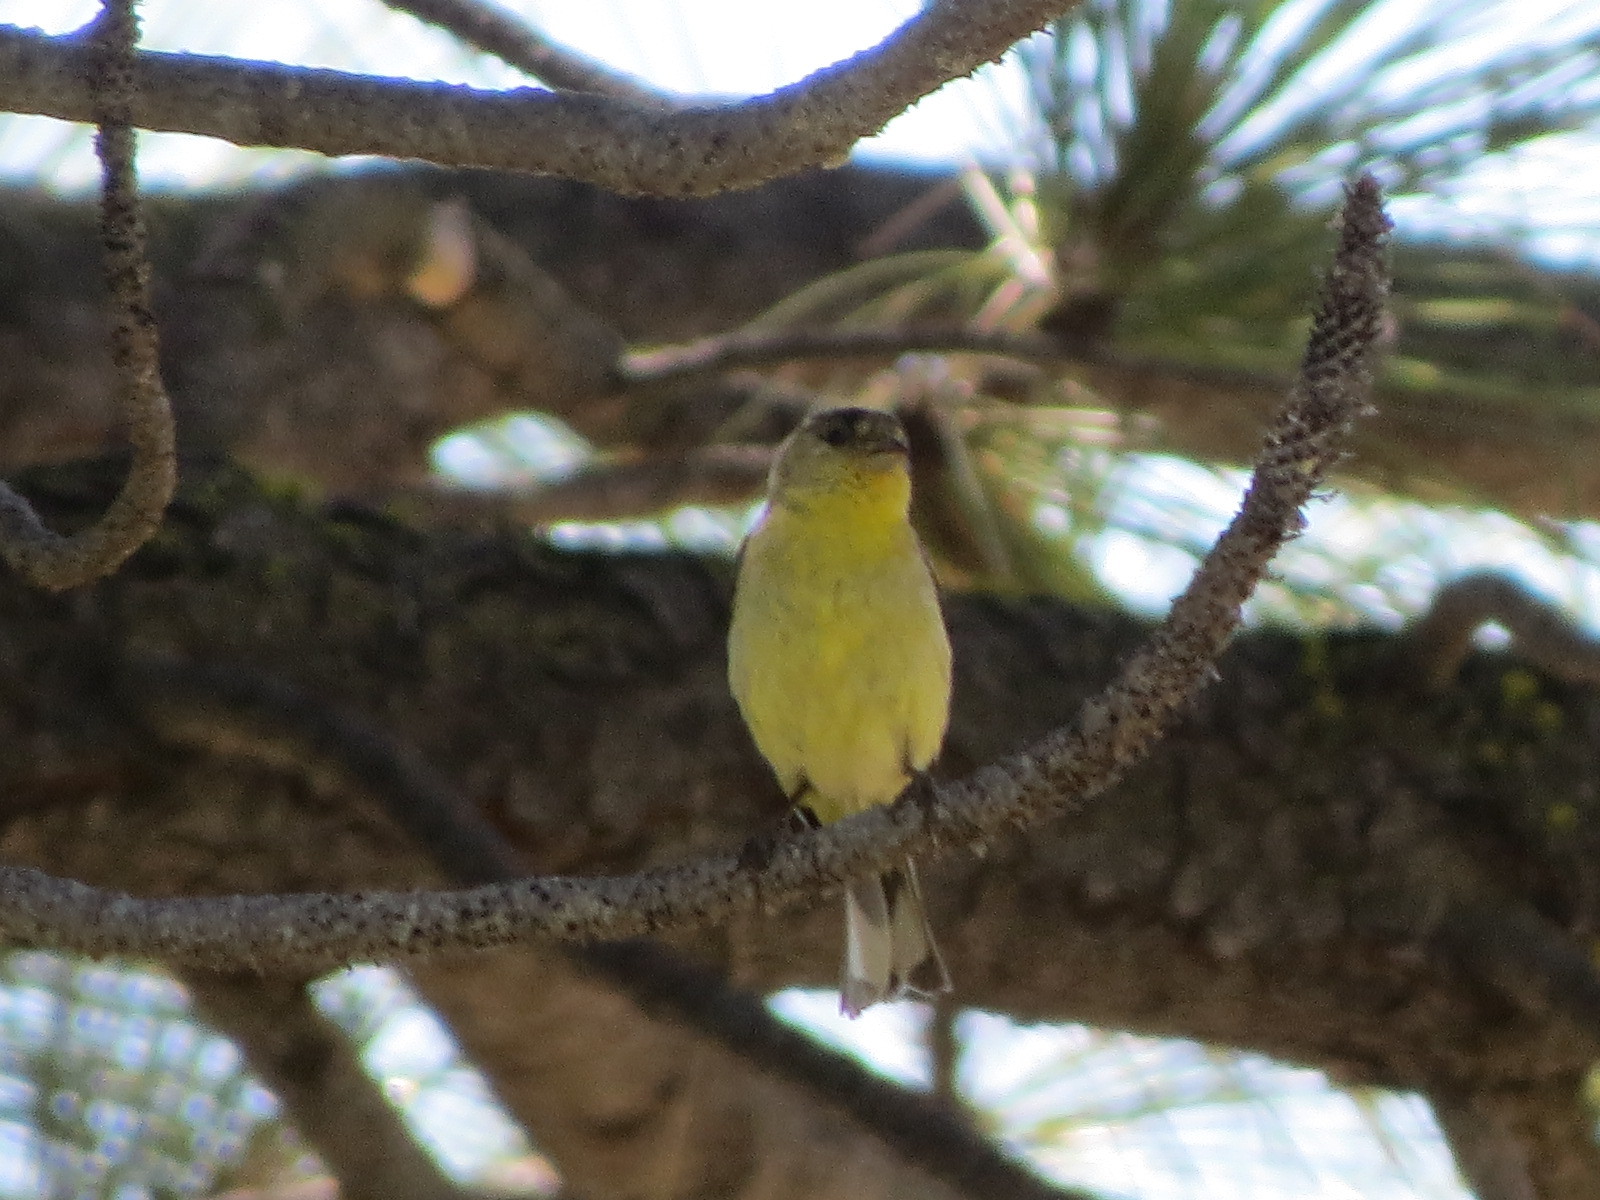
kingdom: Animalia
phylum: Chordata
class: Aves
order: Passeriformes
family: Fringillidae
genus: Spinus
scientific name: Spinus psaltria
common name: Lesser goldfinch
